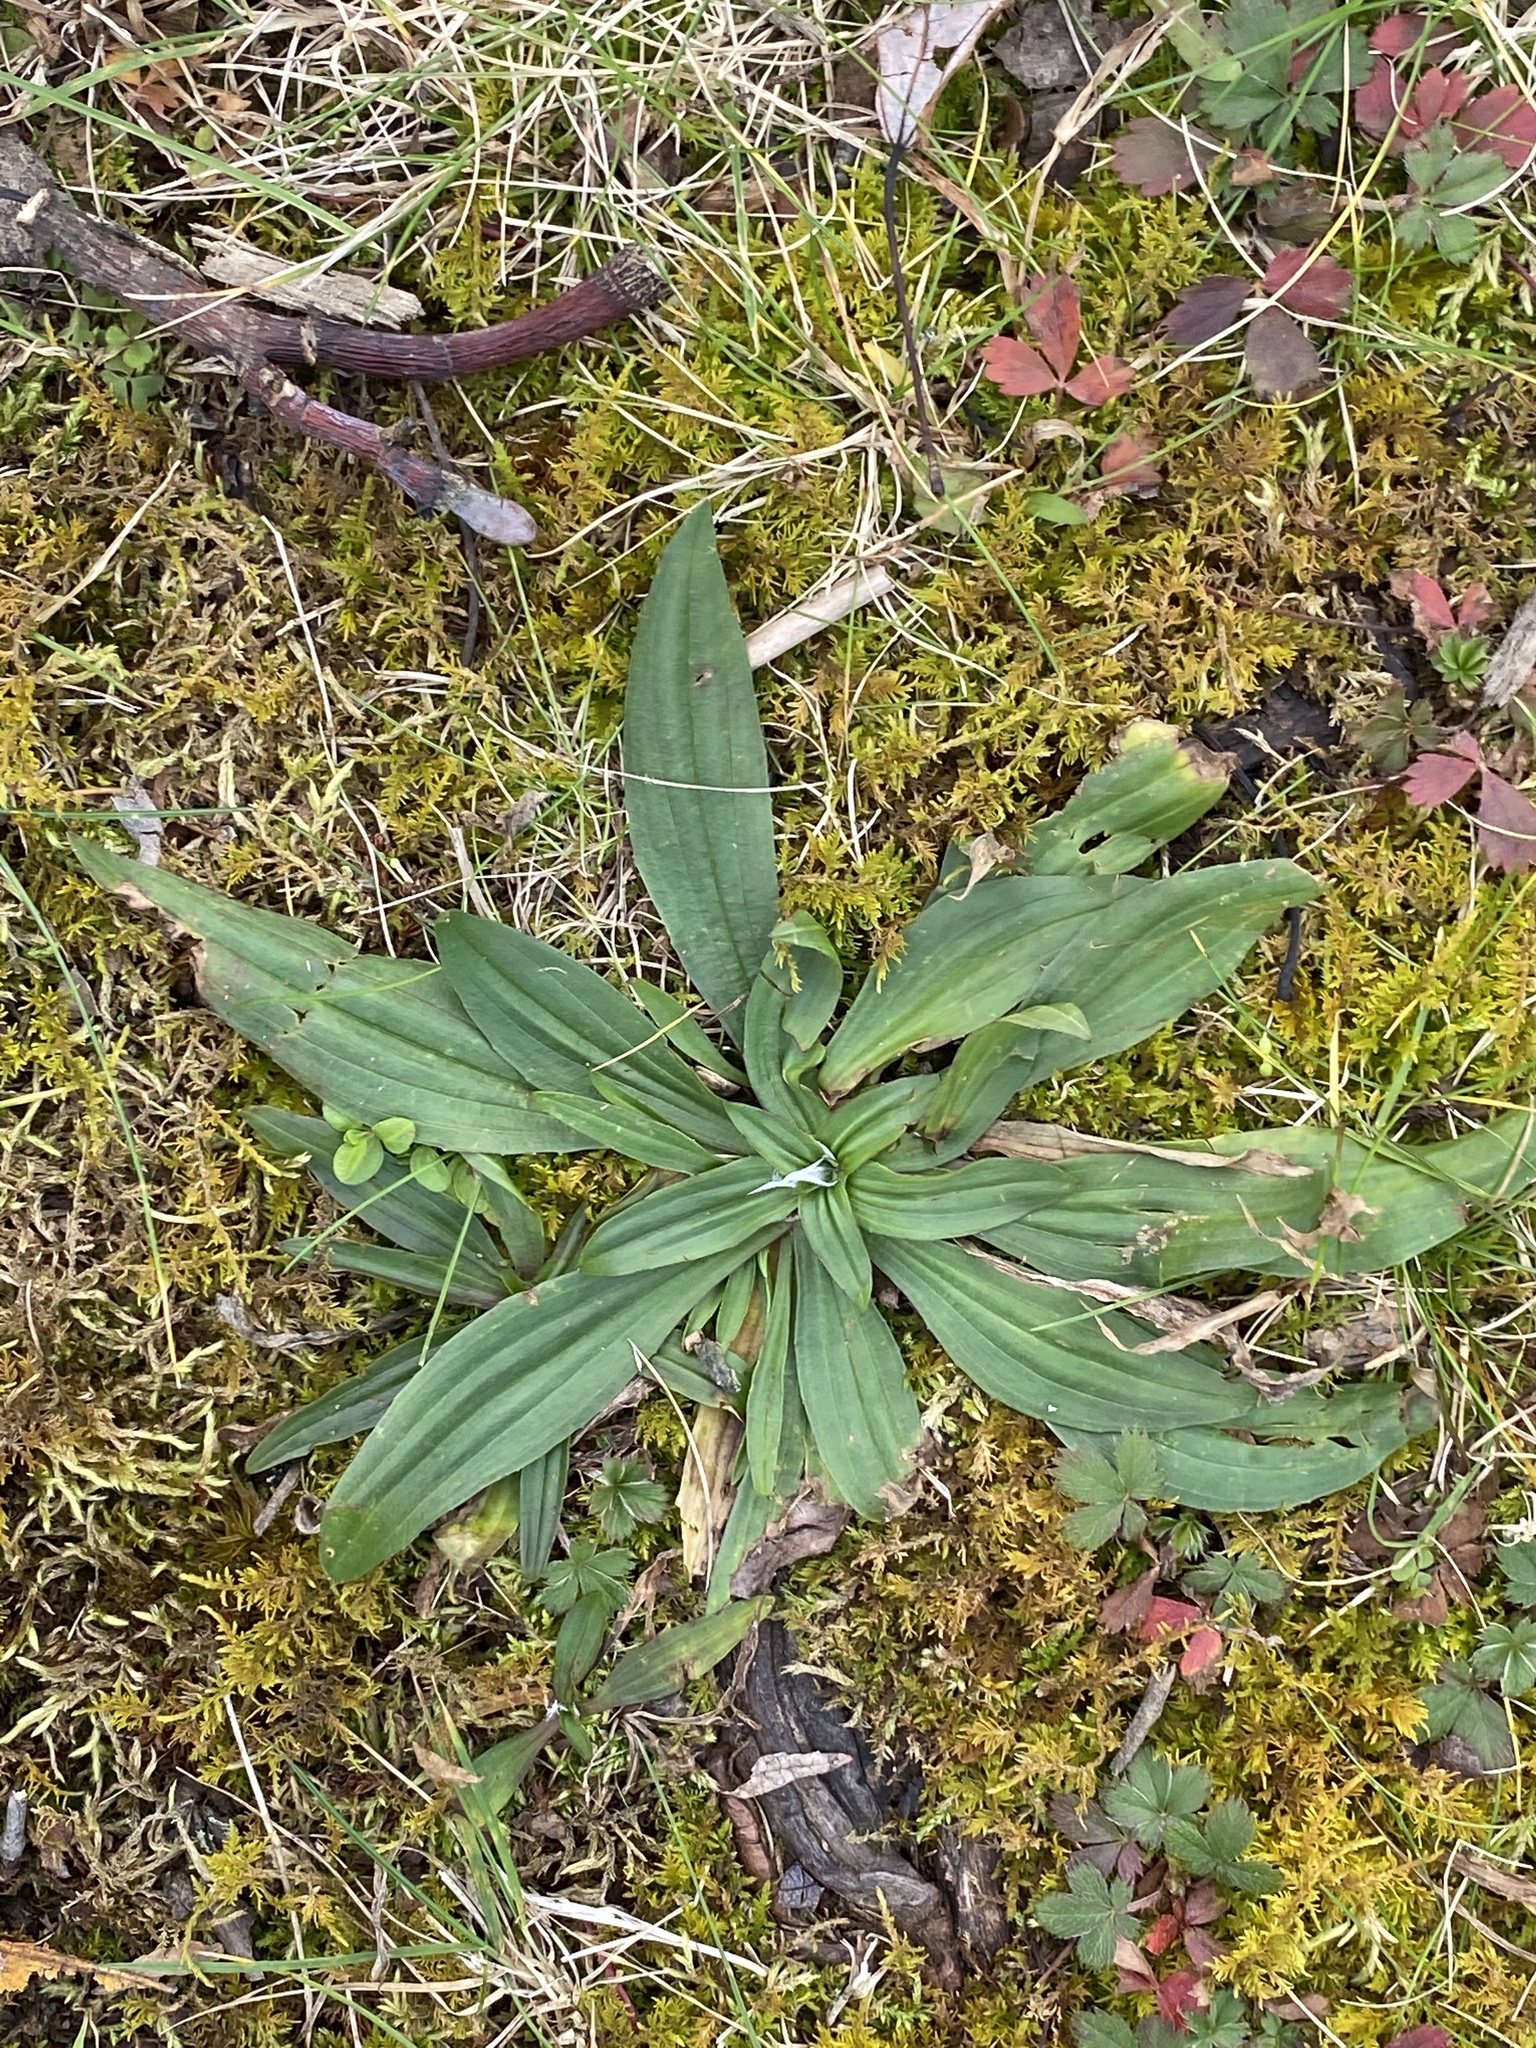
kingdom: Plantae
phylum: Tracheophyta
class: Magnoliopsida
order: Lamiales
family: Plantaginaceae
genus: Plantago
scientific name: Plantago lanceolata
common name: Ribwort plantain
